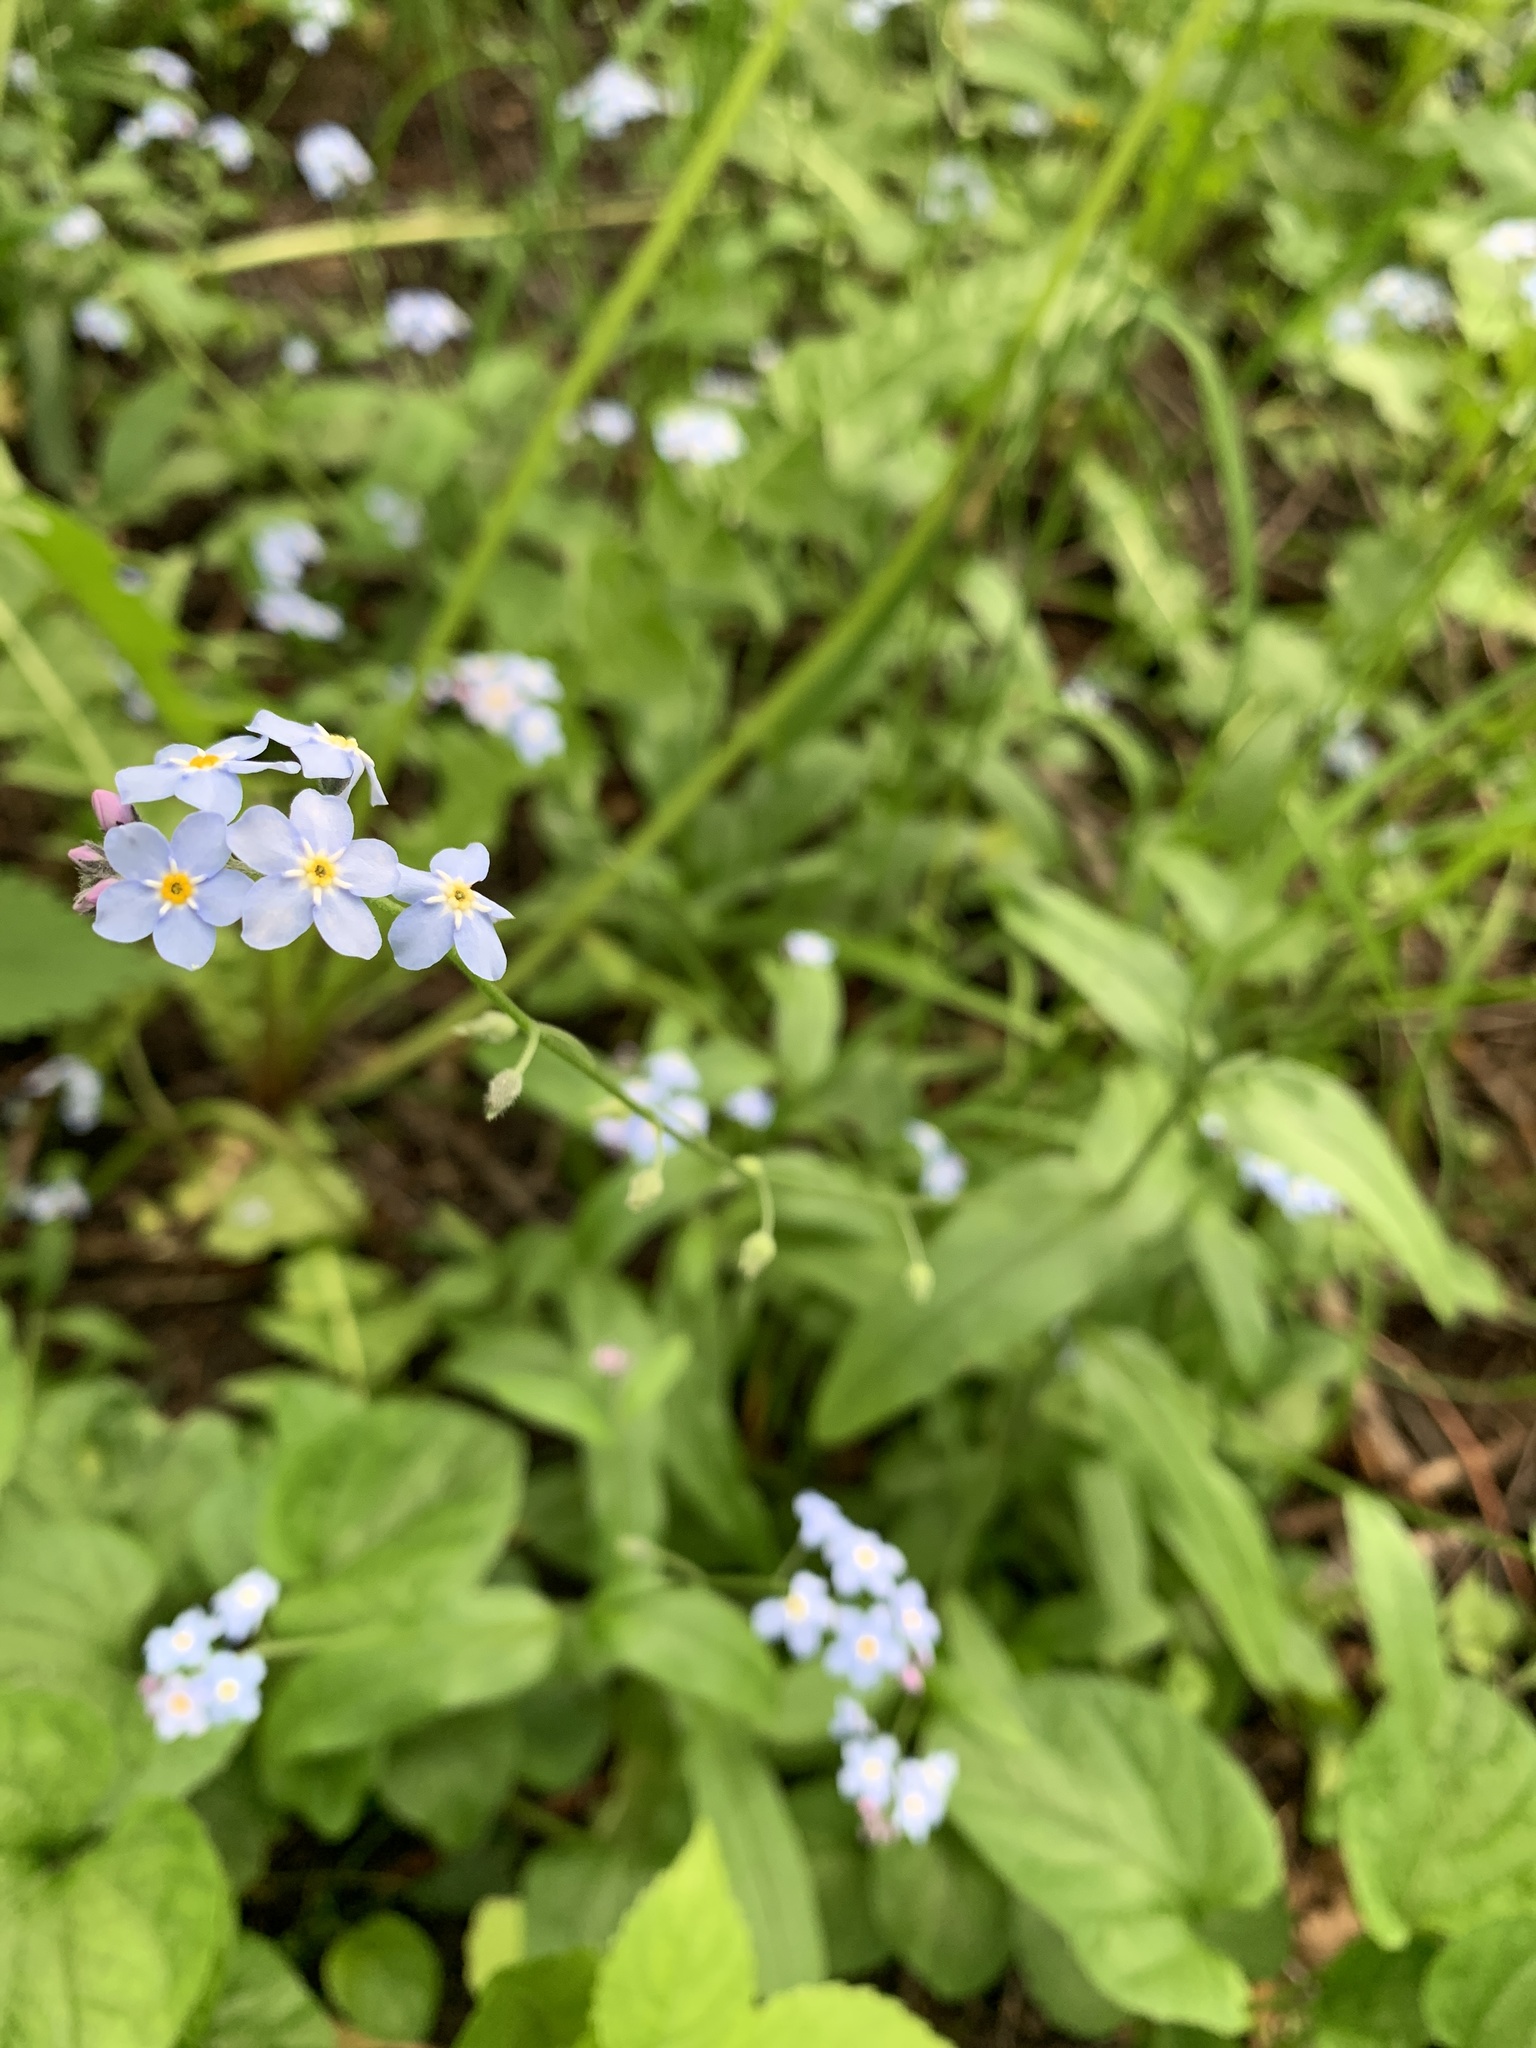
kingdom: Plantae
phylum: Tracheophyta
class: Magnoliopsida
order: Boraginales
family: Boraginaceae
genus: Myosotis
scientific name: Myosotis sylvatica
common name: Wood forget-me-not
